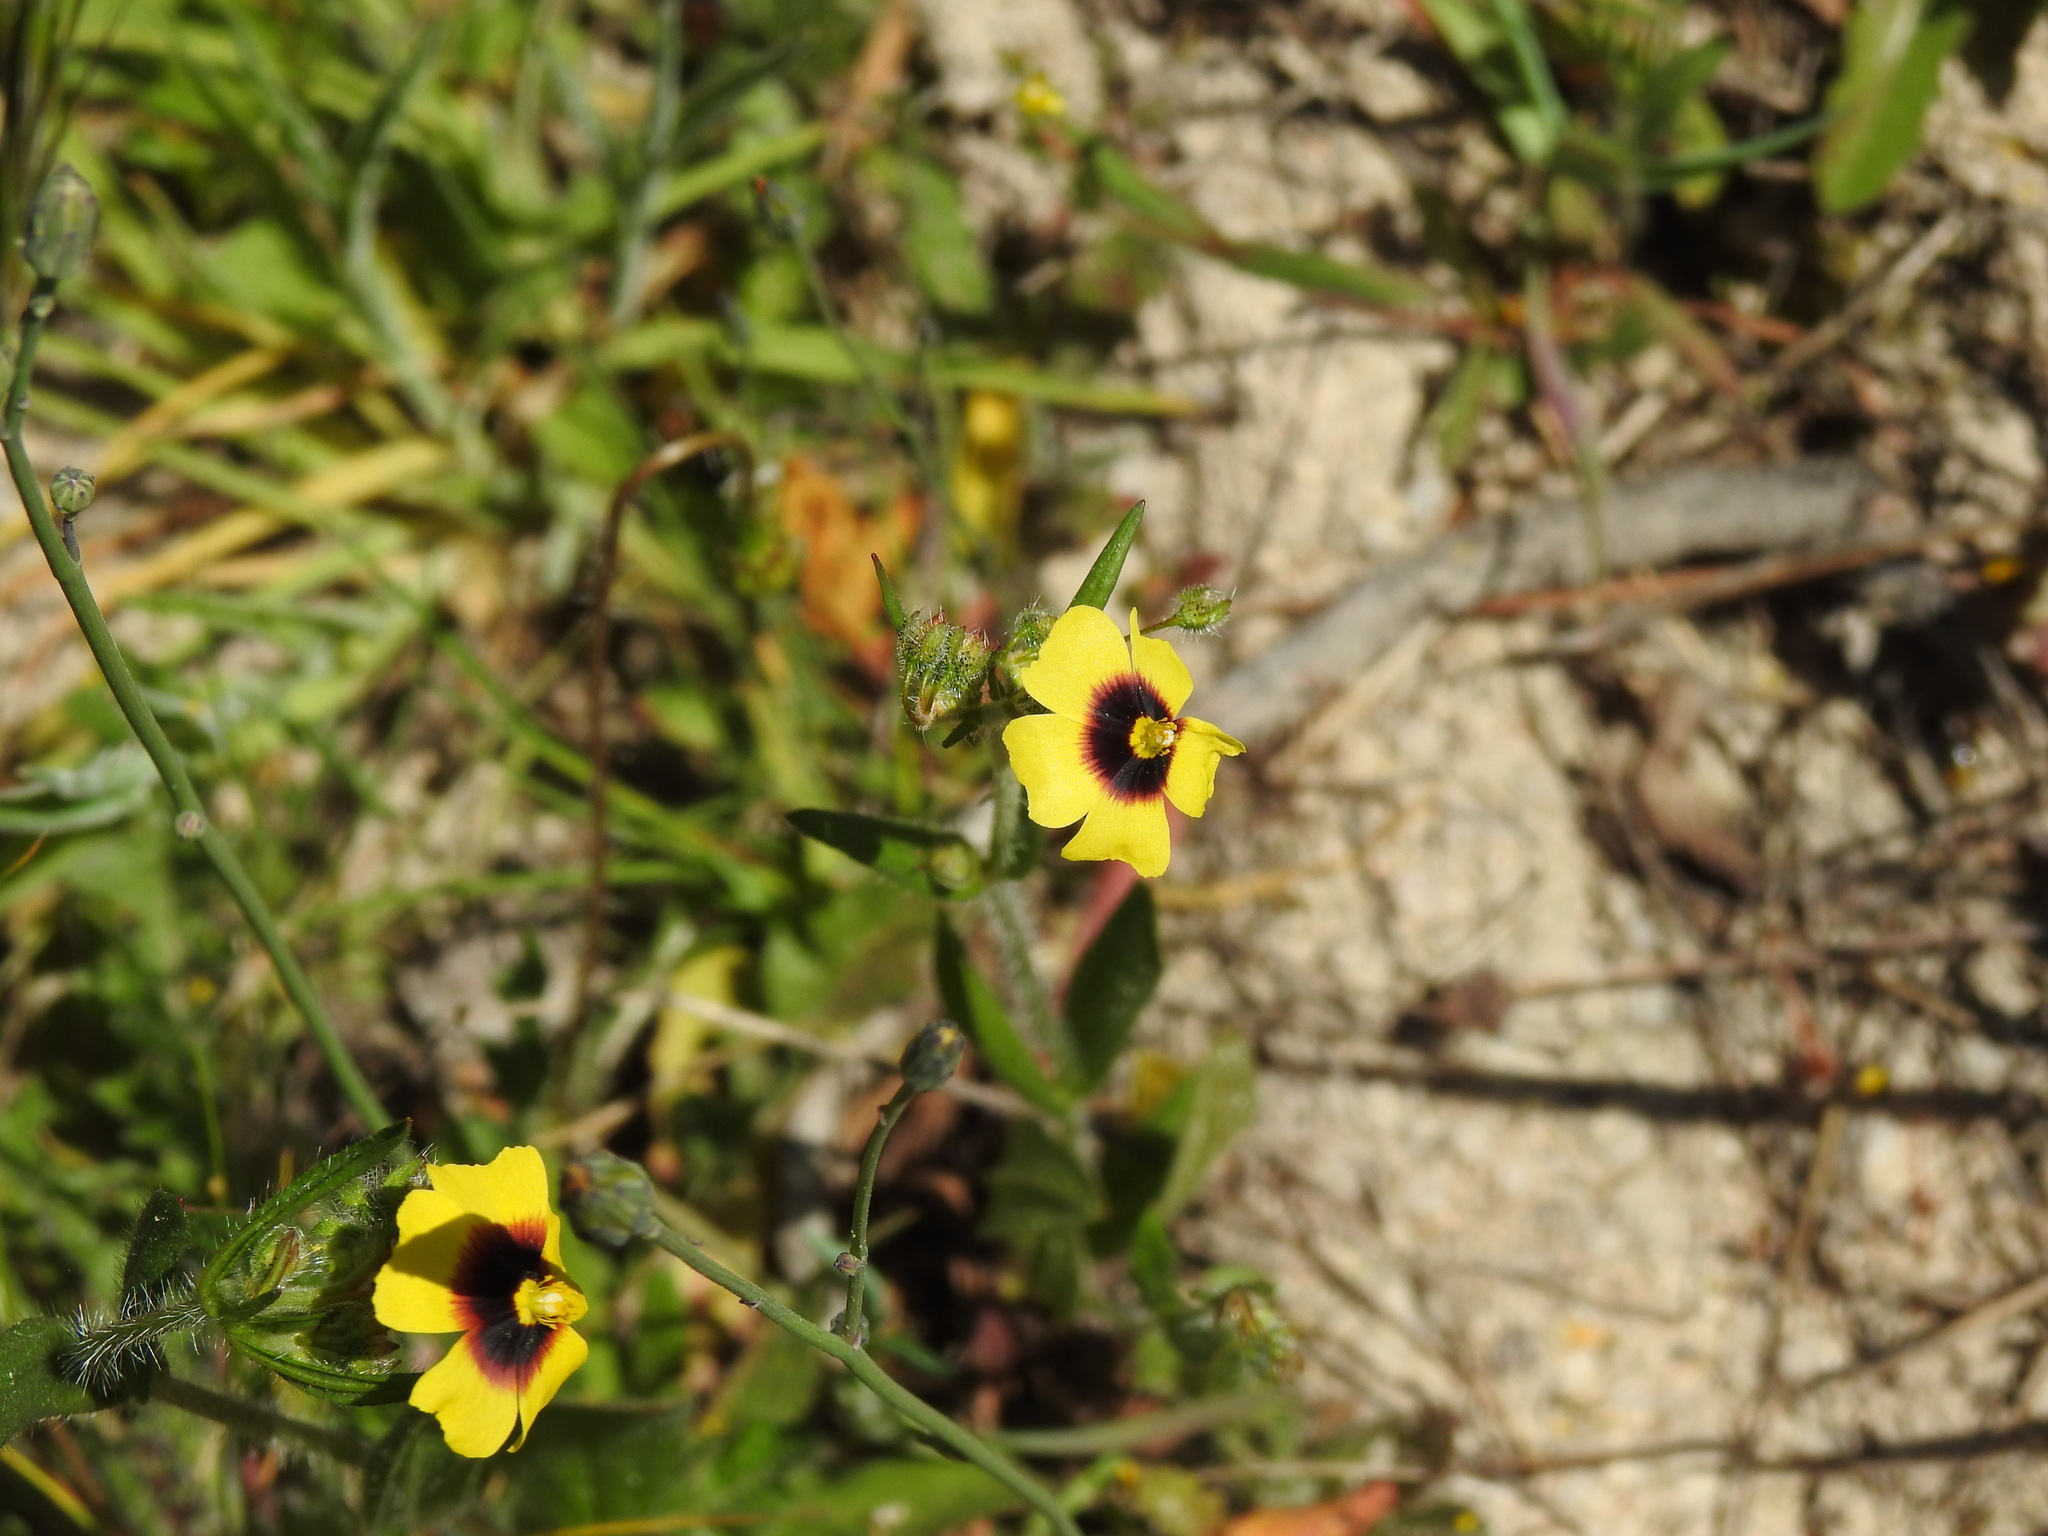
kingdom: Plantae
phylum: Tracheophyta
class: Magnoliopsida
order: Malvales
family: Cistaceae
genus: Tuberaria
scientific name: Tuberaria guttata
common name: Spotted rock-rose
